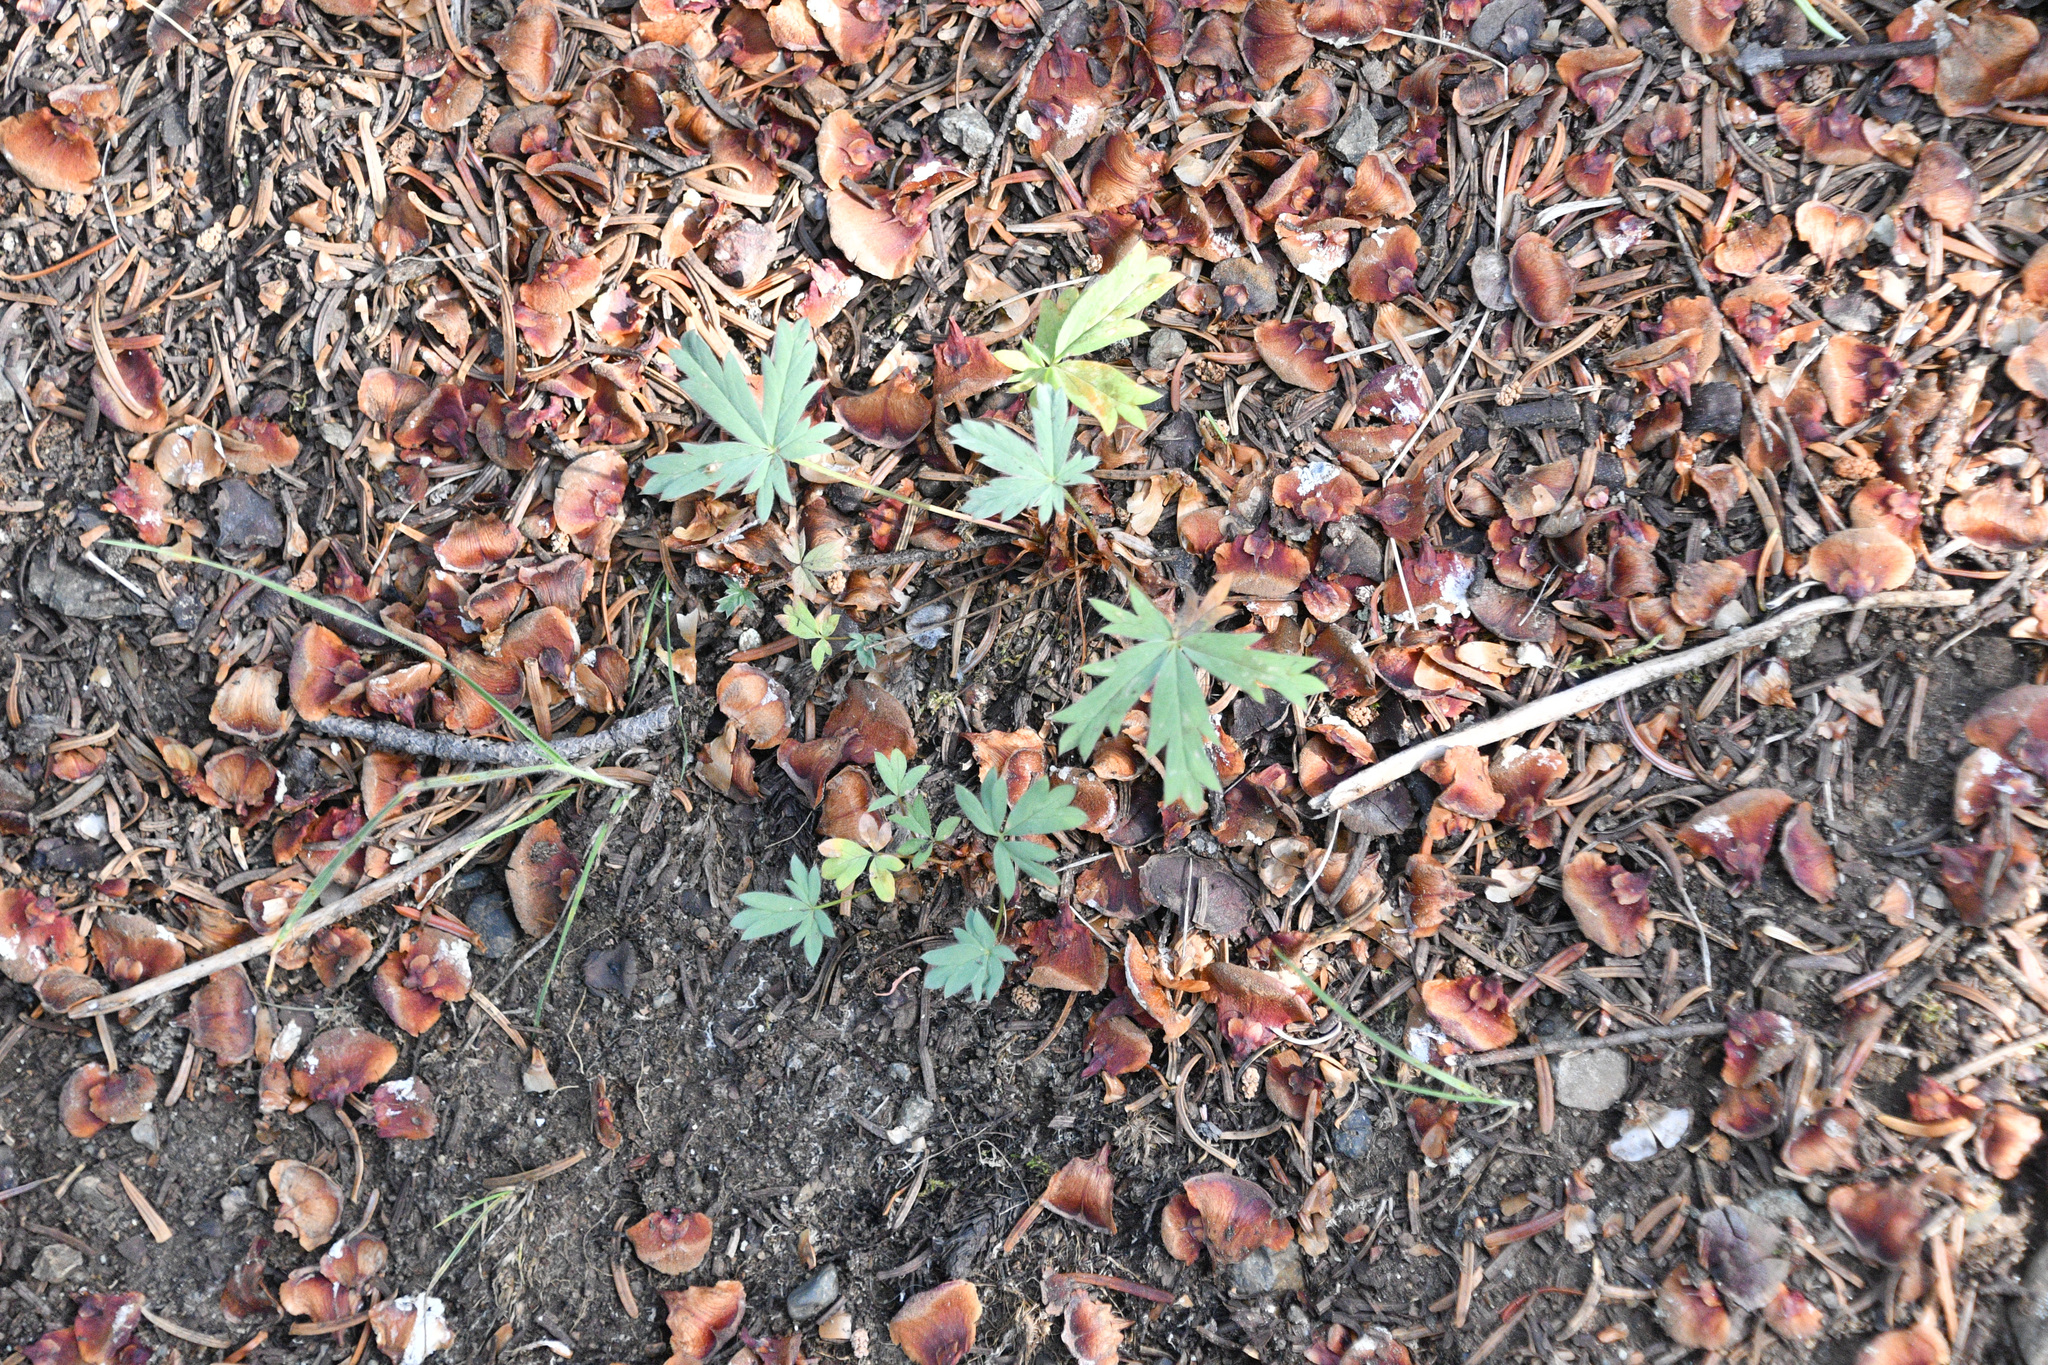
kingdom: Plantae
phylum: Tracheophyta
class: Magnoliopsida
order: Rosales
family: Rosaceae
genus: Potentilla
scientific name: Potentilla glaucophylla
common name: Blue-leaved cinquefoil
